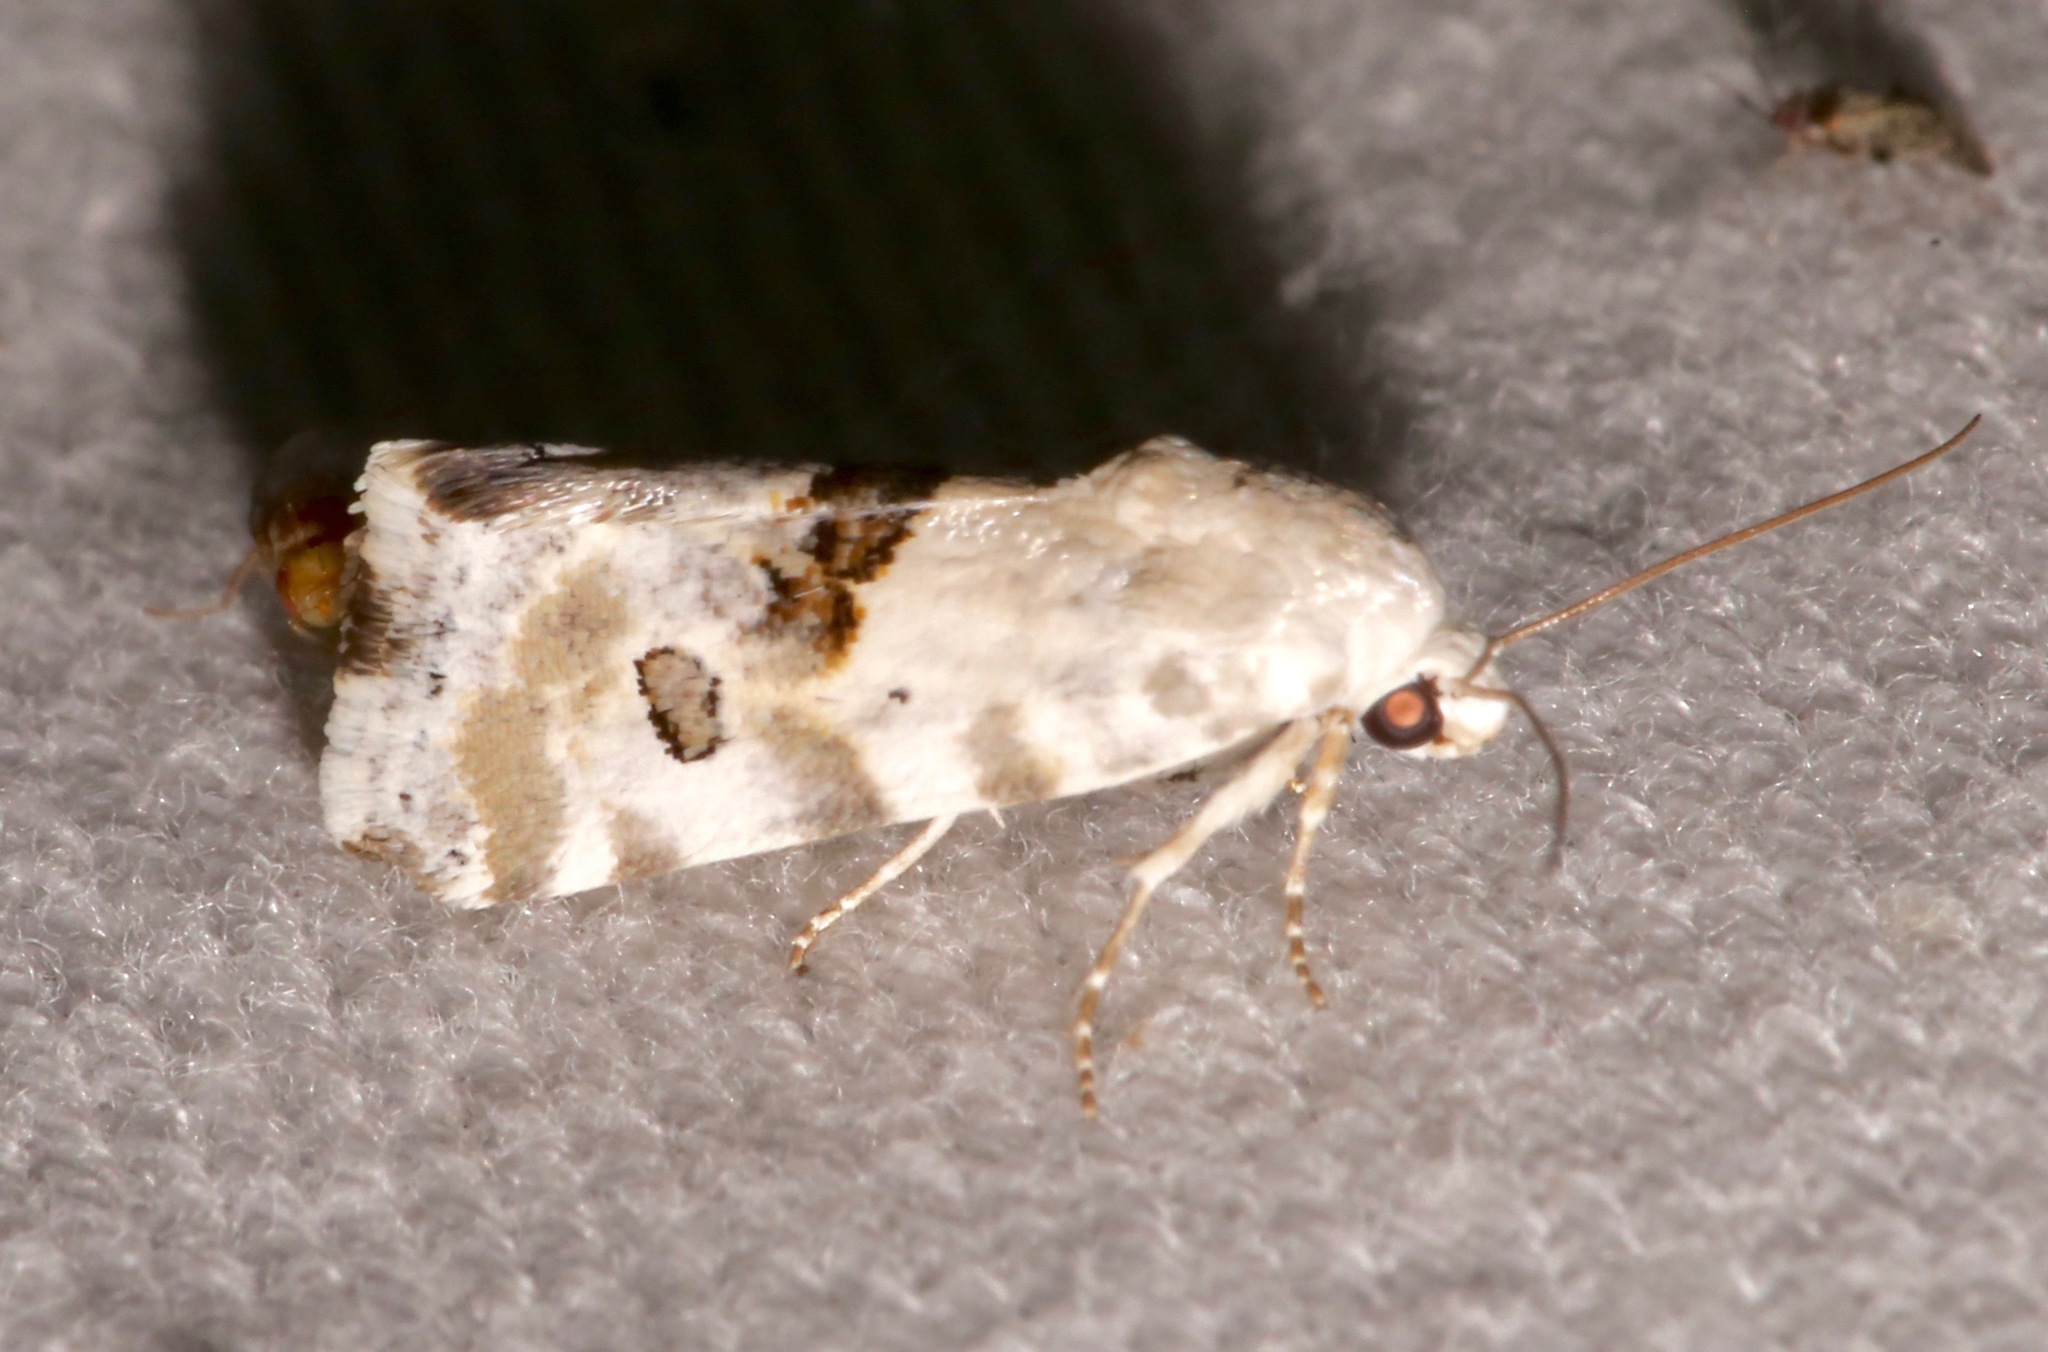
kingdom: Animalia
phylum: Arthropoda
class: Insecta
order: Lepidoptera
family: Noctuidae
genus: Acontia
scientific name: Acontia altera
